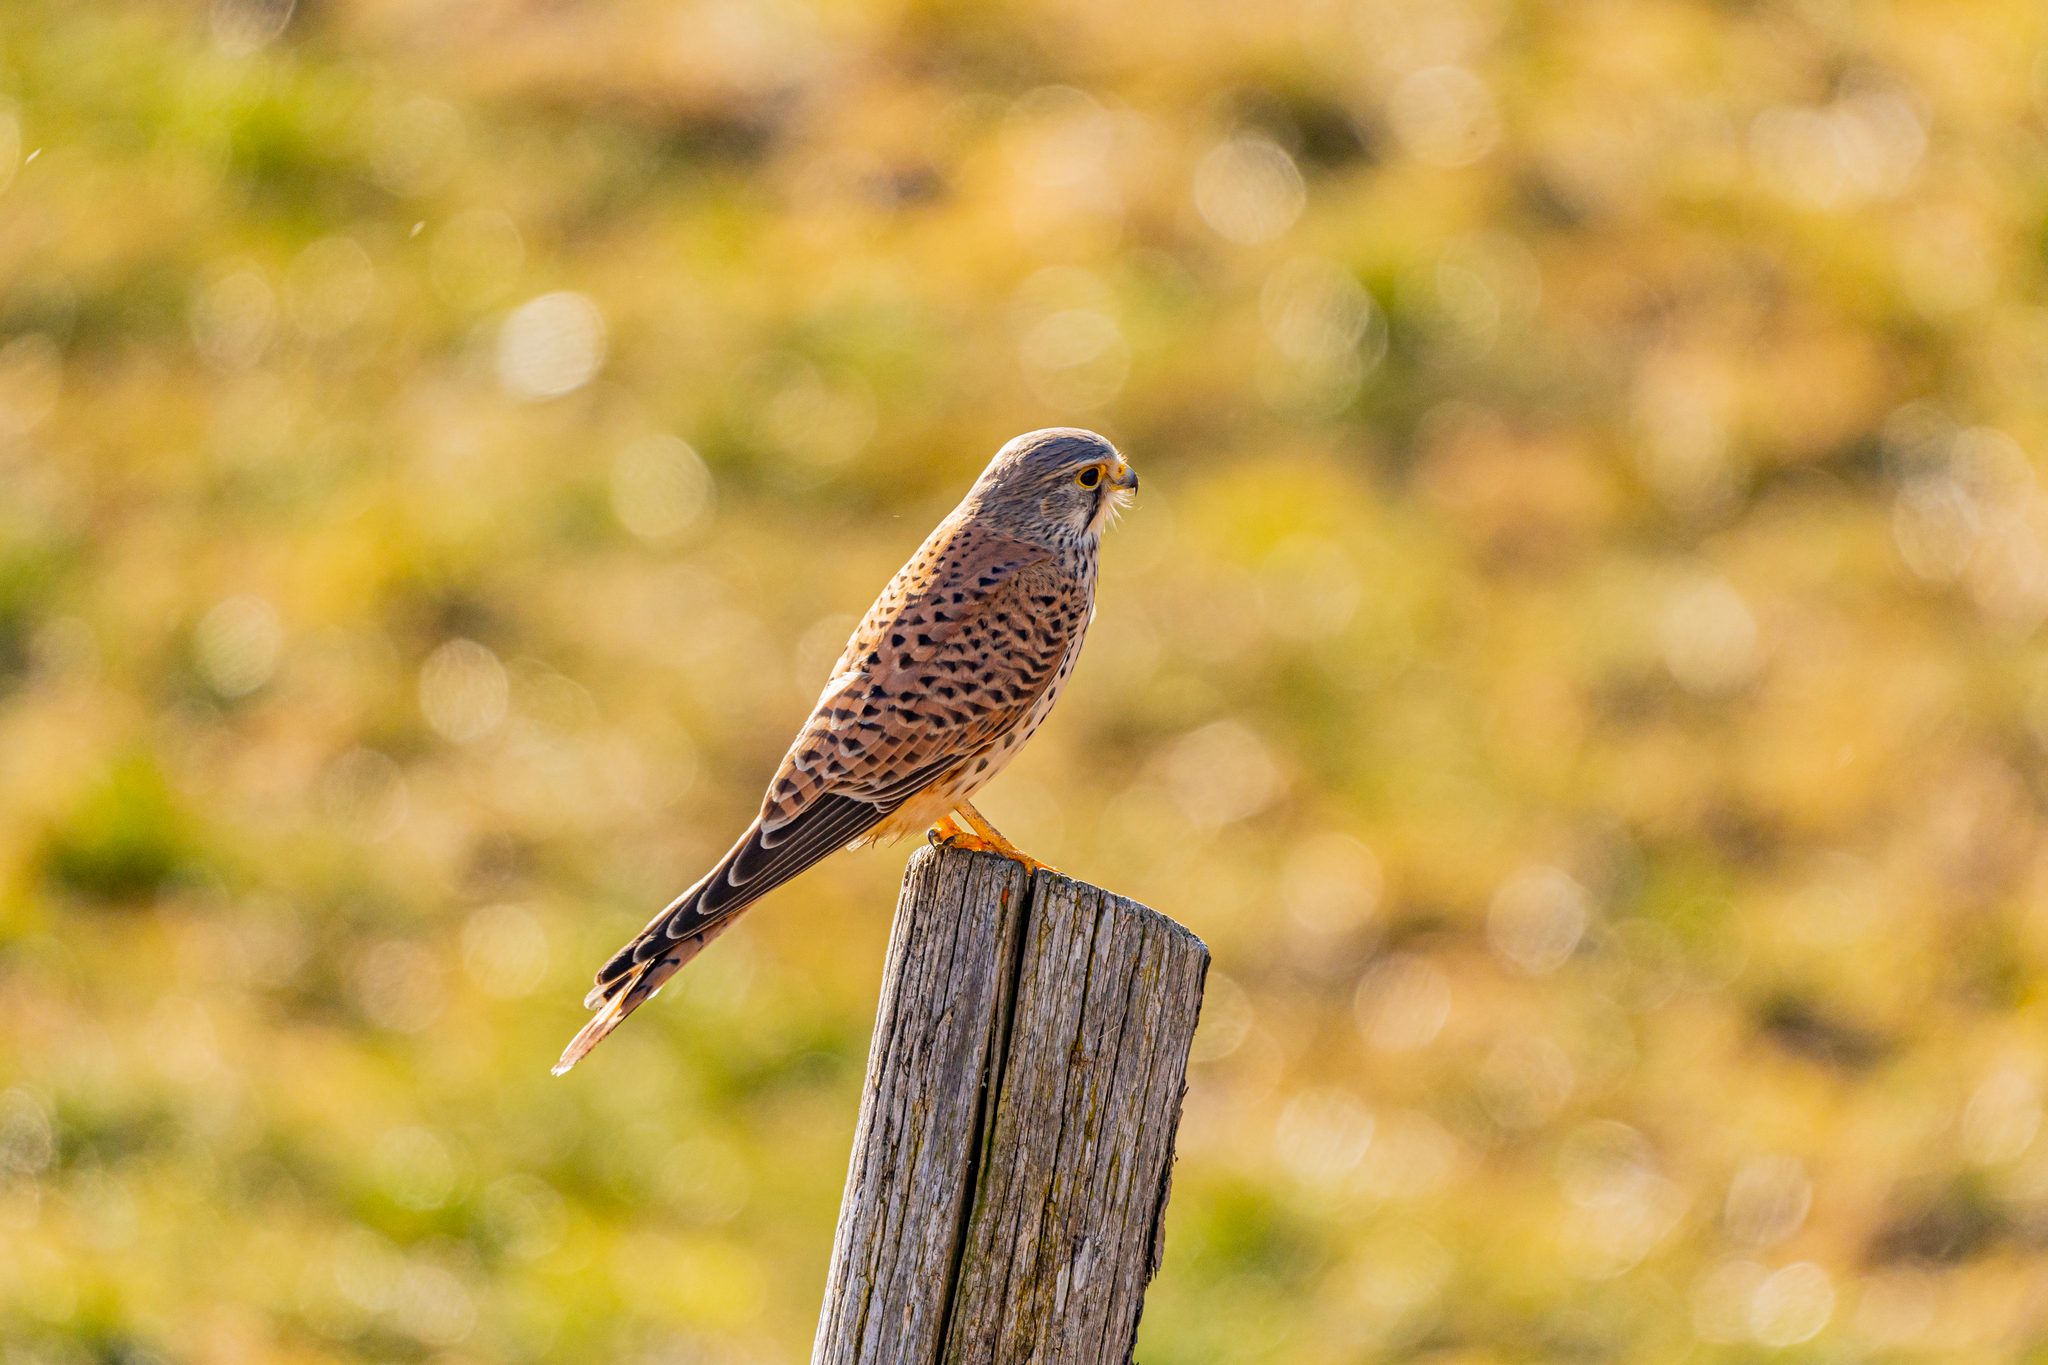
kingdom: Animalia
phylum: Chordata
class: Aves
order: Falconiformes
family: Falconidae
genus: Falco
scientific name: Falco tinnunculus
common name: Common kestrel
